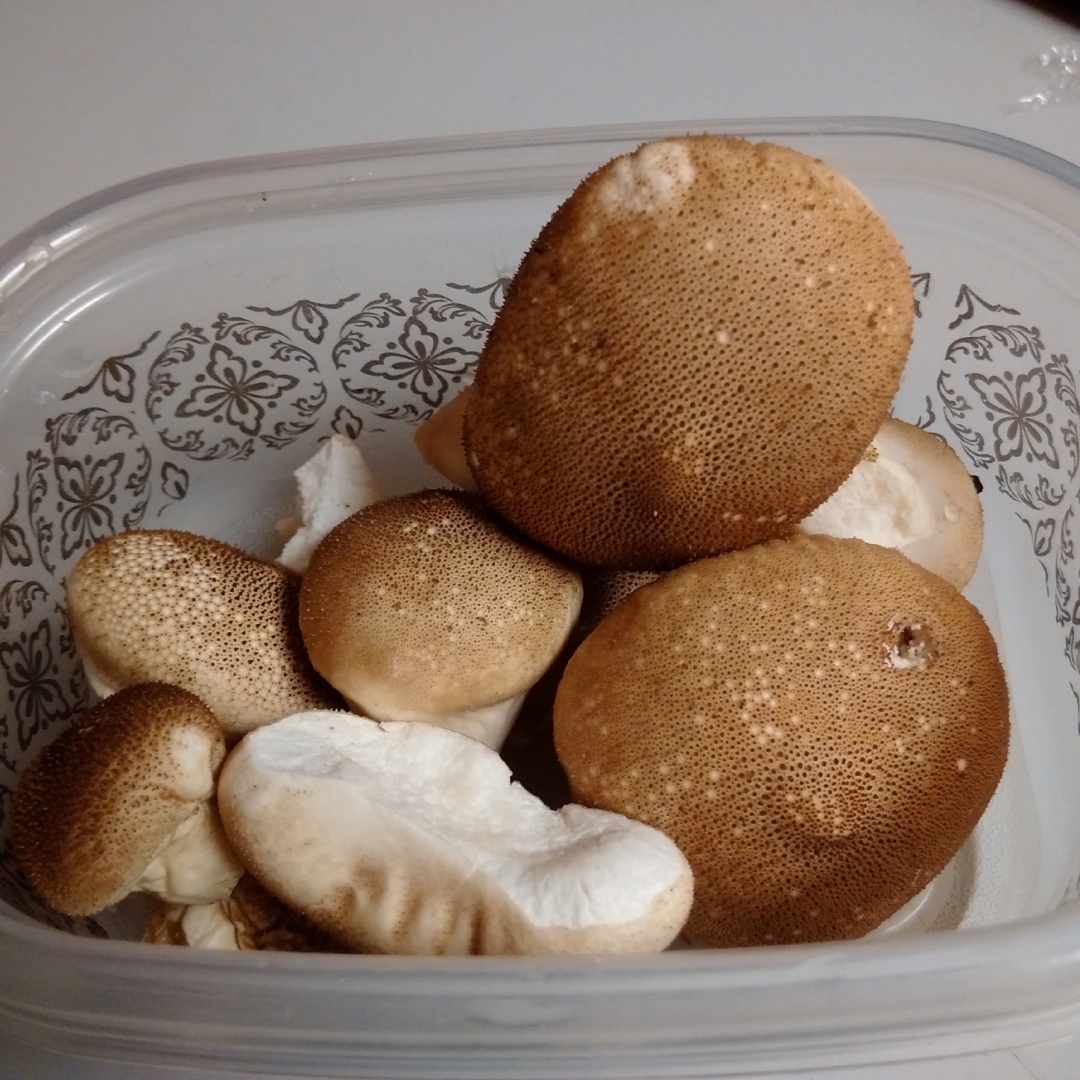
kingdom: Fungi
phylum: Basidiomycota
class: Agaricomycetes
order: Agaricales
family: Lycoperdaceae
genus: Lycoperdon
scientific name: Lycoperdon perlatum
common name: Common puffball
